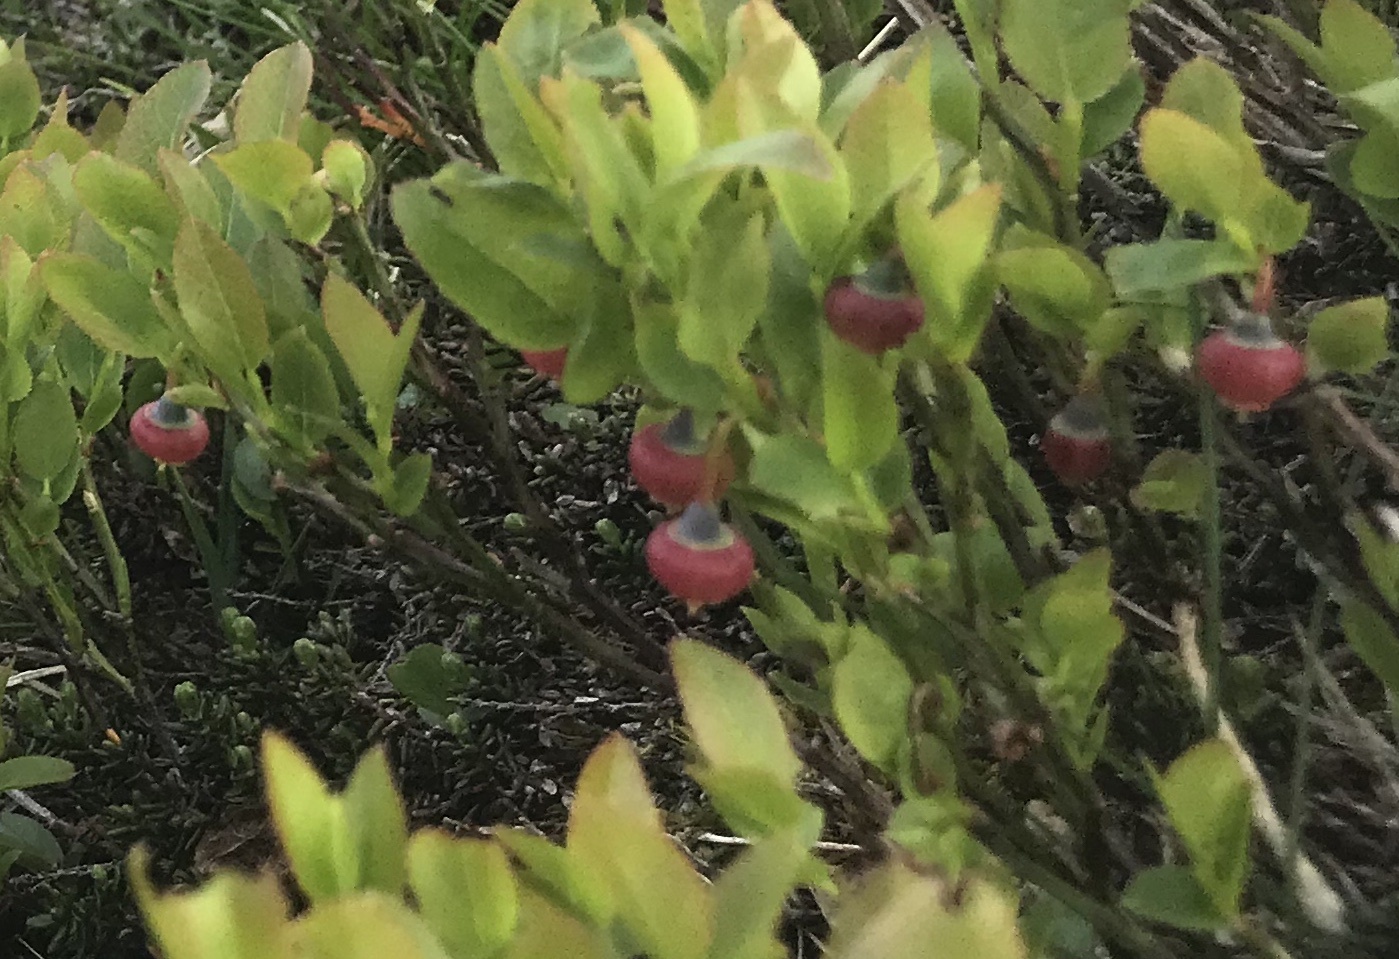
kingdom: Plantae
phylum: Tracheophyta
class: Magnoliopsida
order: Ericales
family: Ericaceae
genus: Vaccinium
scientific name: Vaccinium myrtillus
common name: Bilberry
